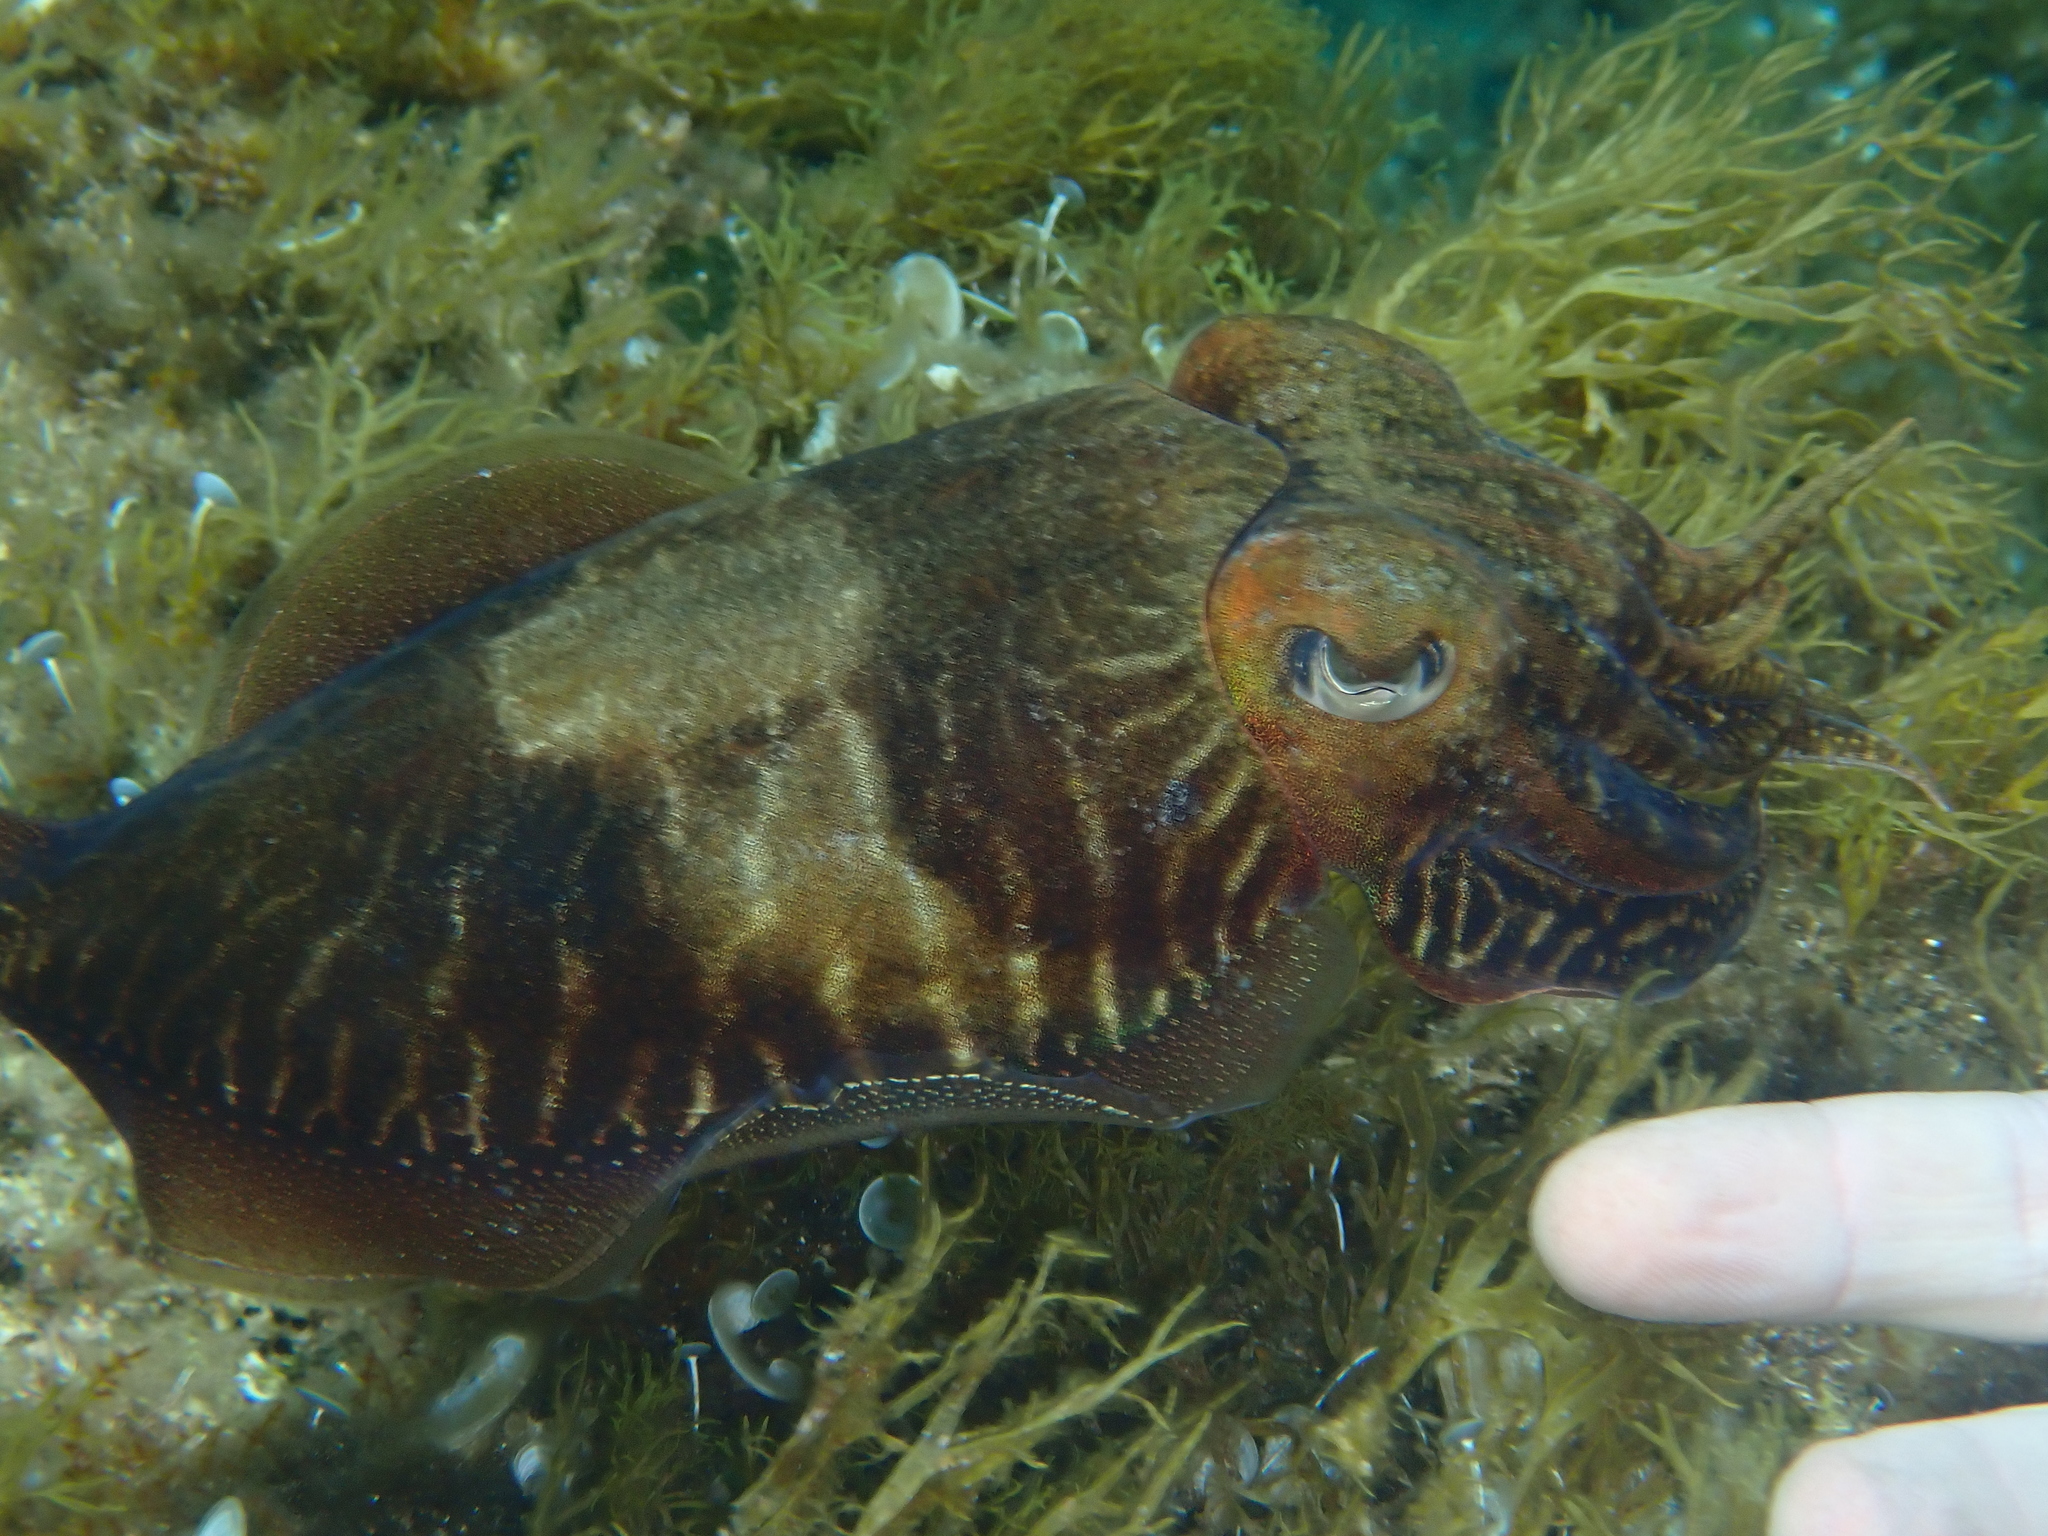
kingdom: Animalia
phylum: Mollusca
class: Cephalopoda
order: Sepiida
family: Sepiidae
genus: Sepia
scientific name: Sepia officinalis
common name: Common cuttlefish
